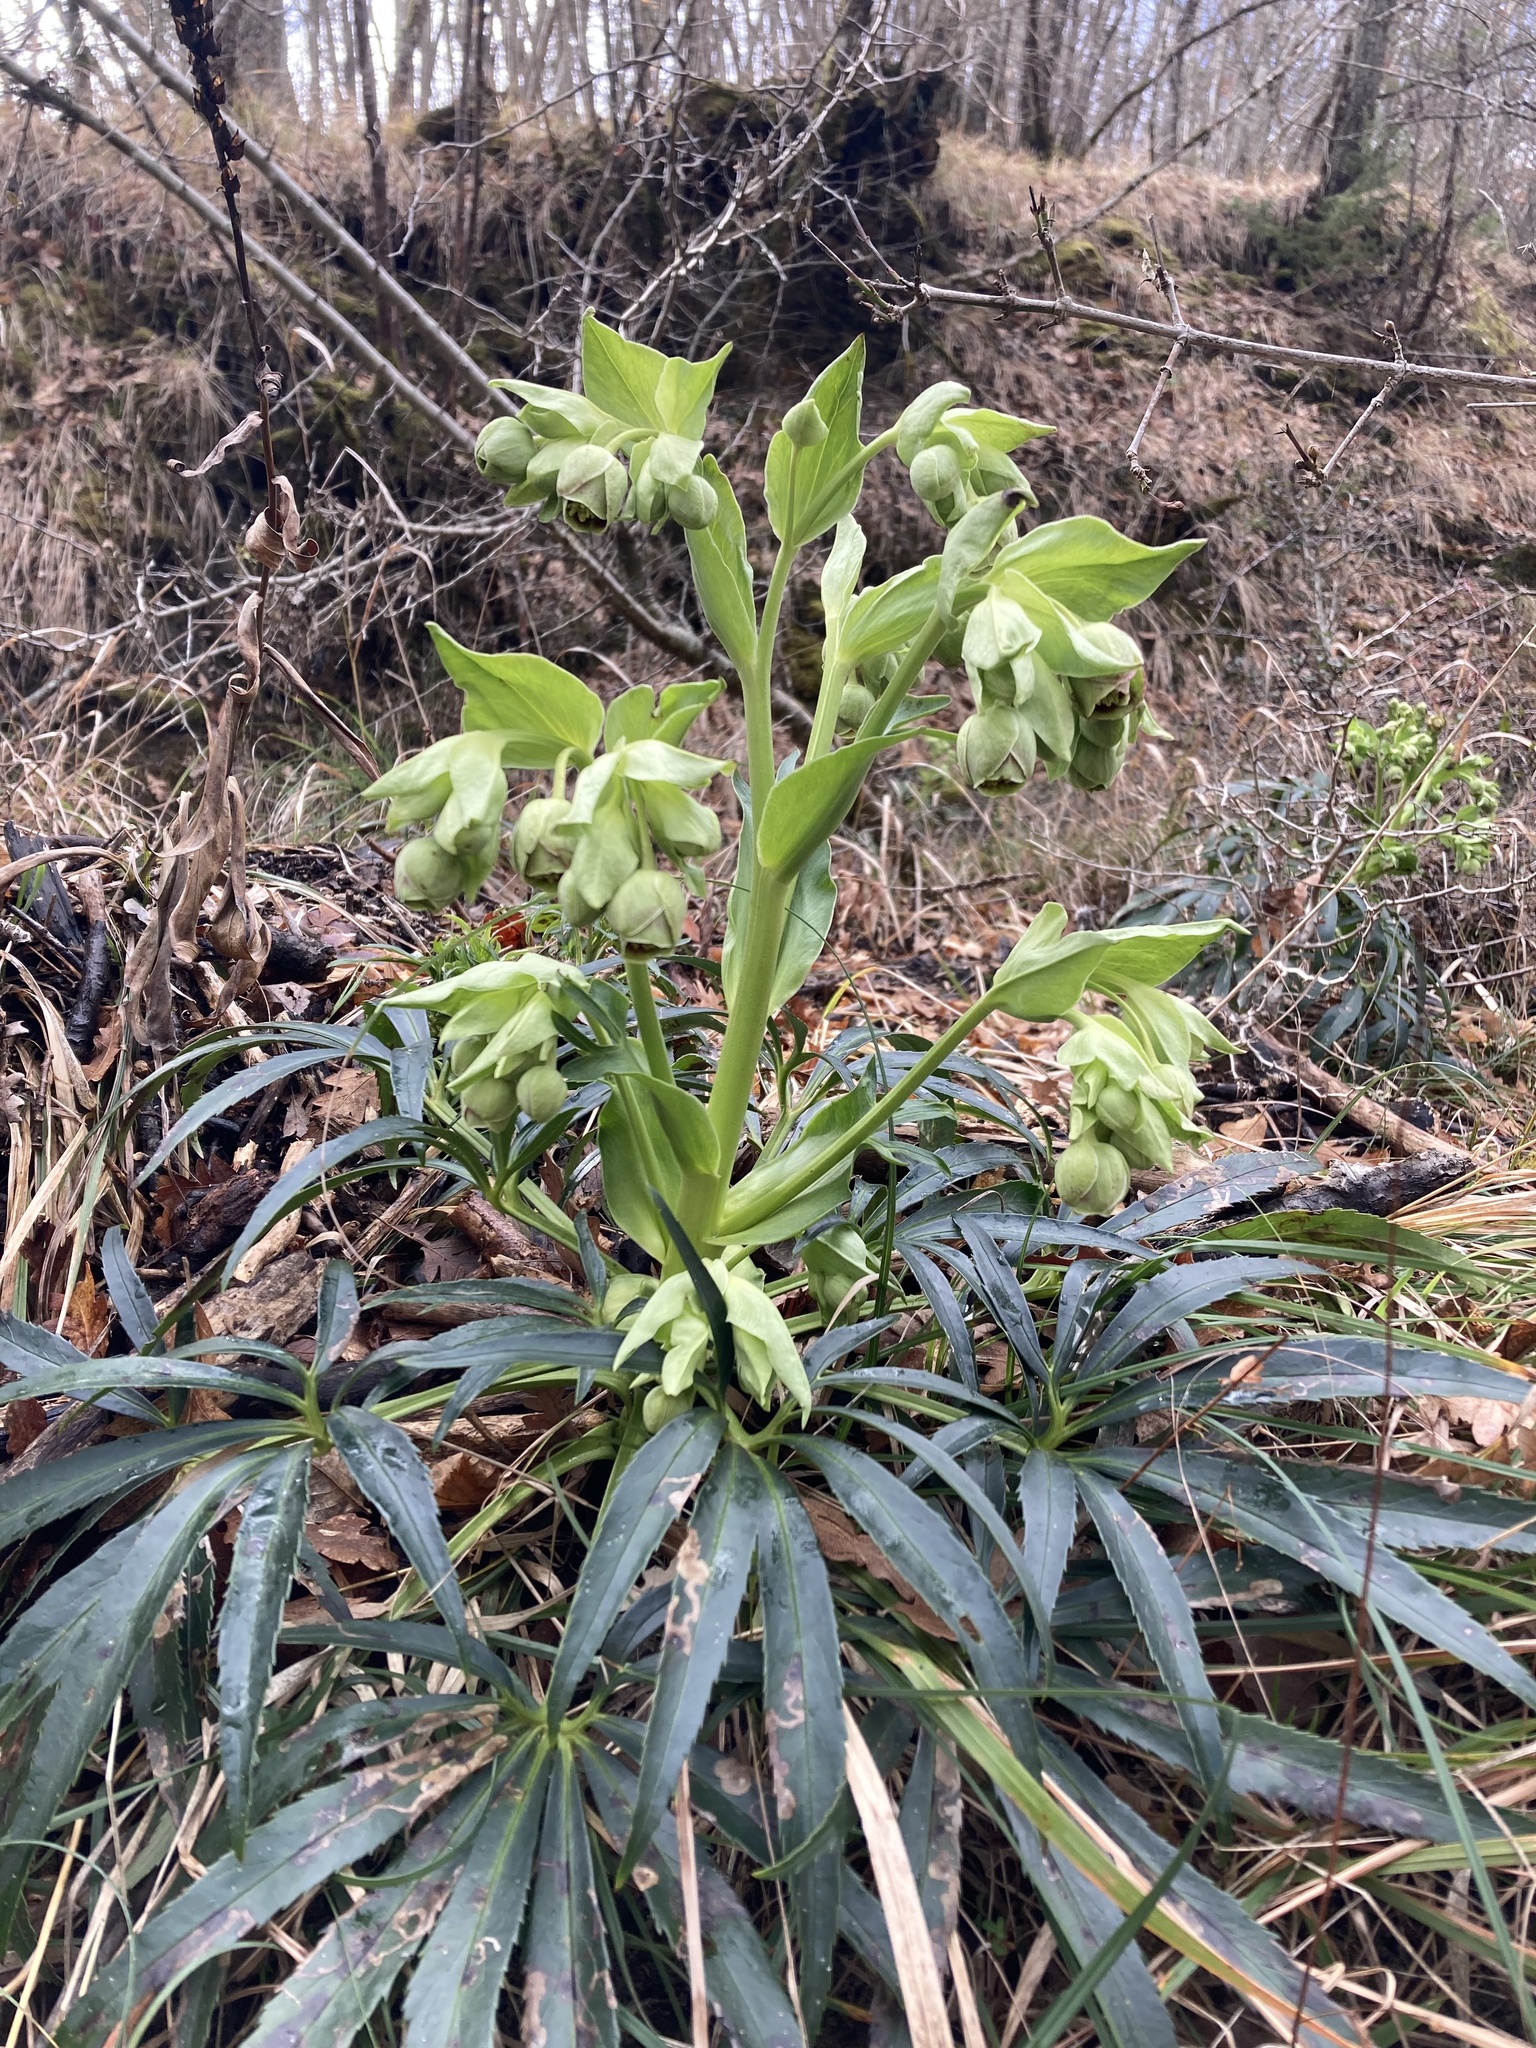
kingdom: Plantae
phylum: Tracheophyta
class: Magnoliopsida
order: Ranunculales
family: Ranunculaceae
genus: Helleborus
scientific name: Helleborus foetidus
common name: Stinking hellebore
